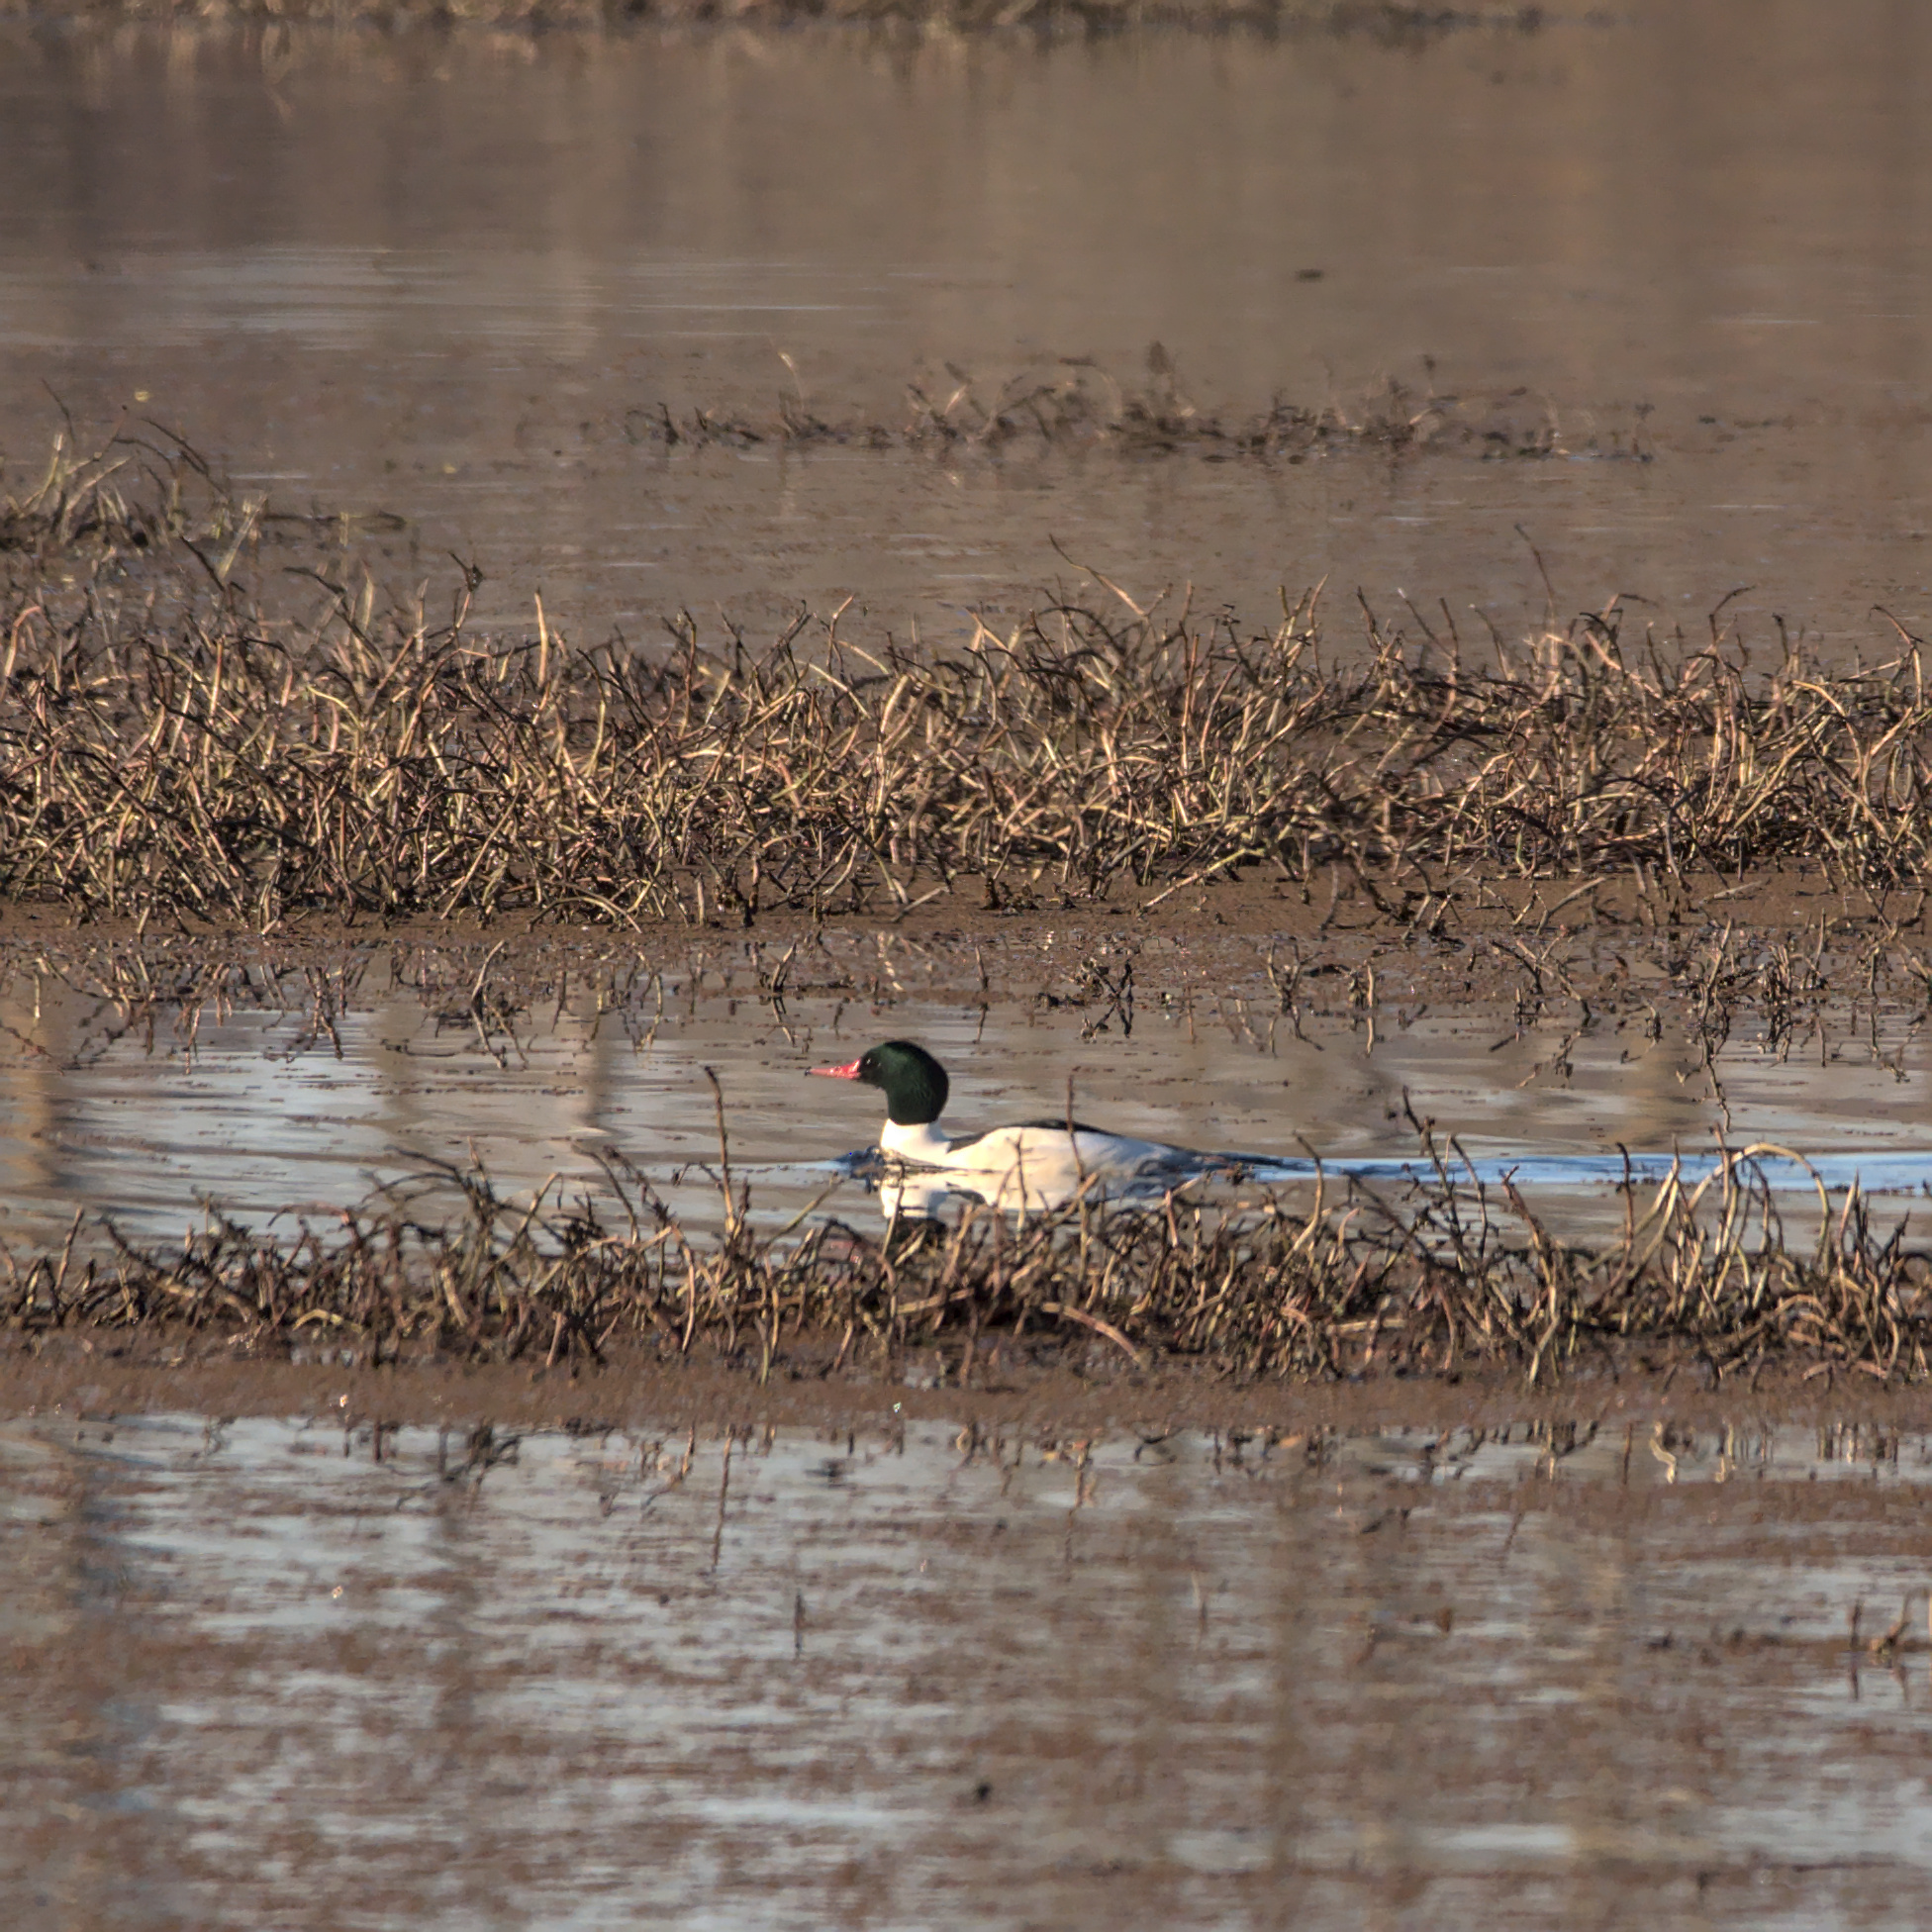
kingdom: Animalia
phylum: Chordata
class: Aves
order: Anseriformes
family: Anatidae
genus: Mergus
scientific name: Mergus merganser
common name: Common merganser
